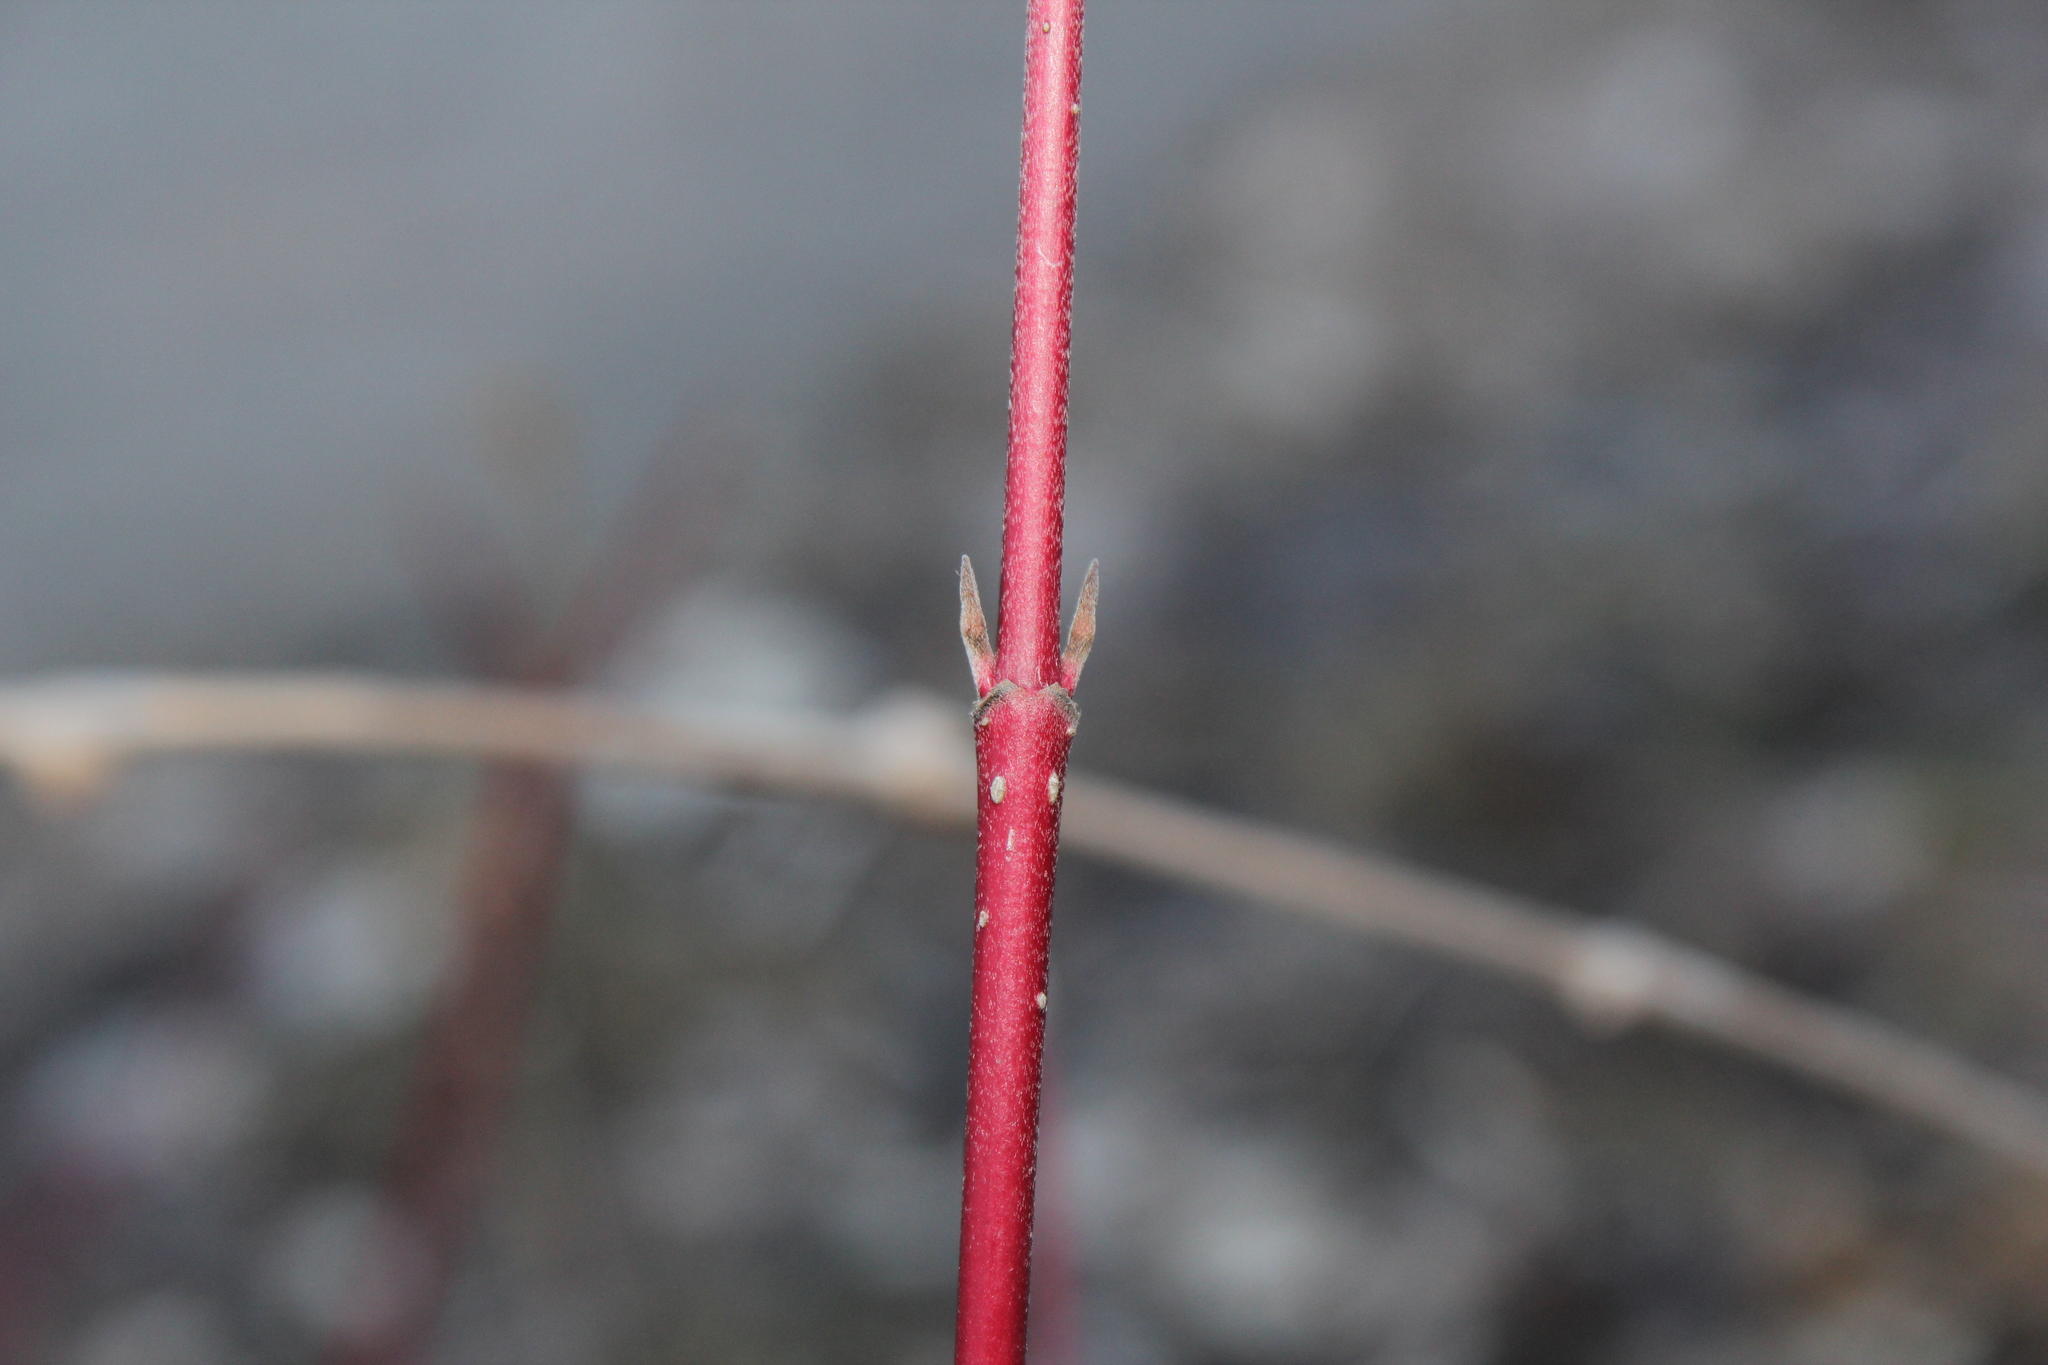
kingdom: Plantae
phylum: Tracheophyta
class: Magnoliopsida
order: Cornales
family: Cornaceae
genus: Cornus
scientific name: Cornus sericea
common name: Red-osier dogwood
